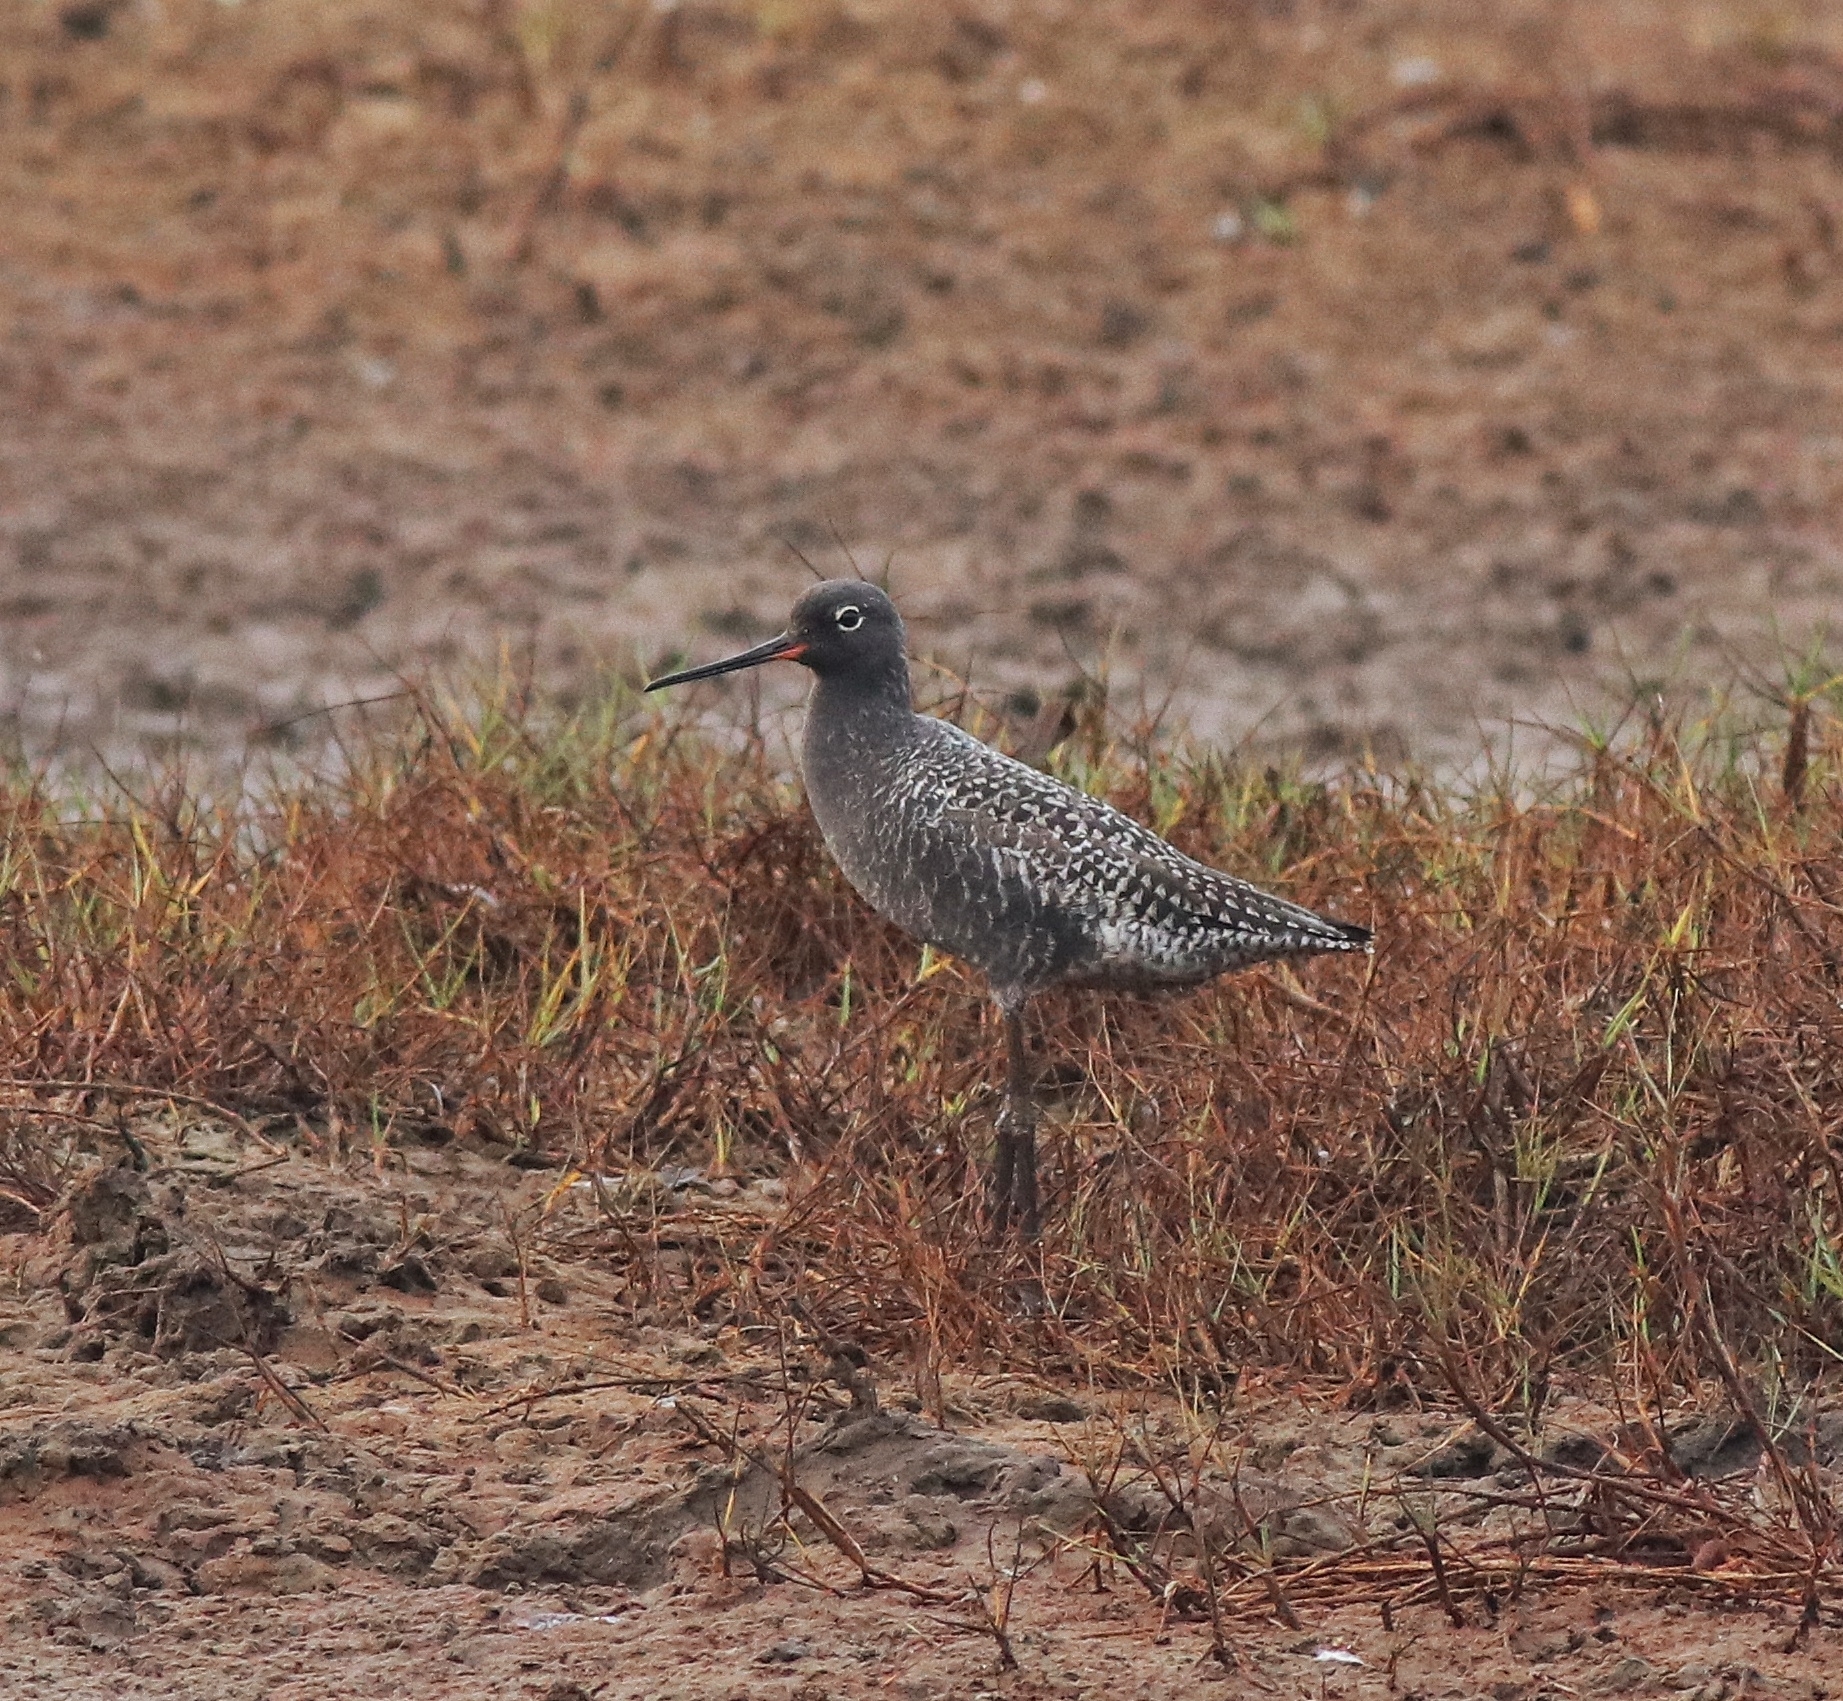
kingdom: Animalia
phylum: Chordata
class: Aves
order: Charadriiformes
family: Scolopacidae
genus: Tringa
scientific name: Tringa erythropus
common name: Spotted redshank
